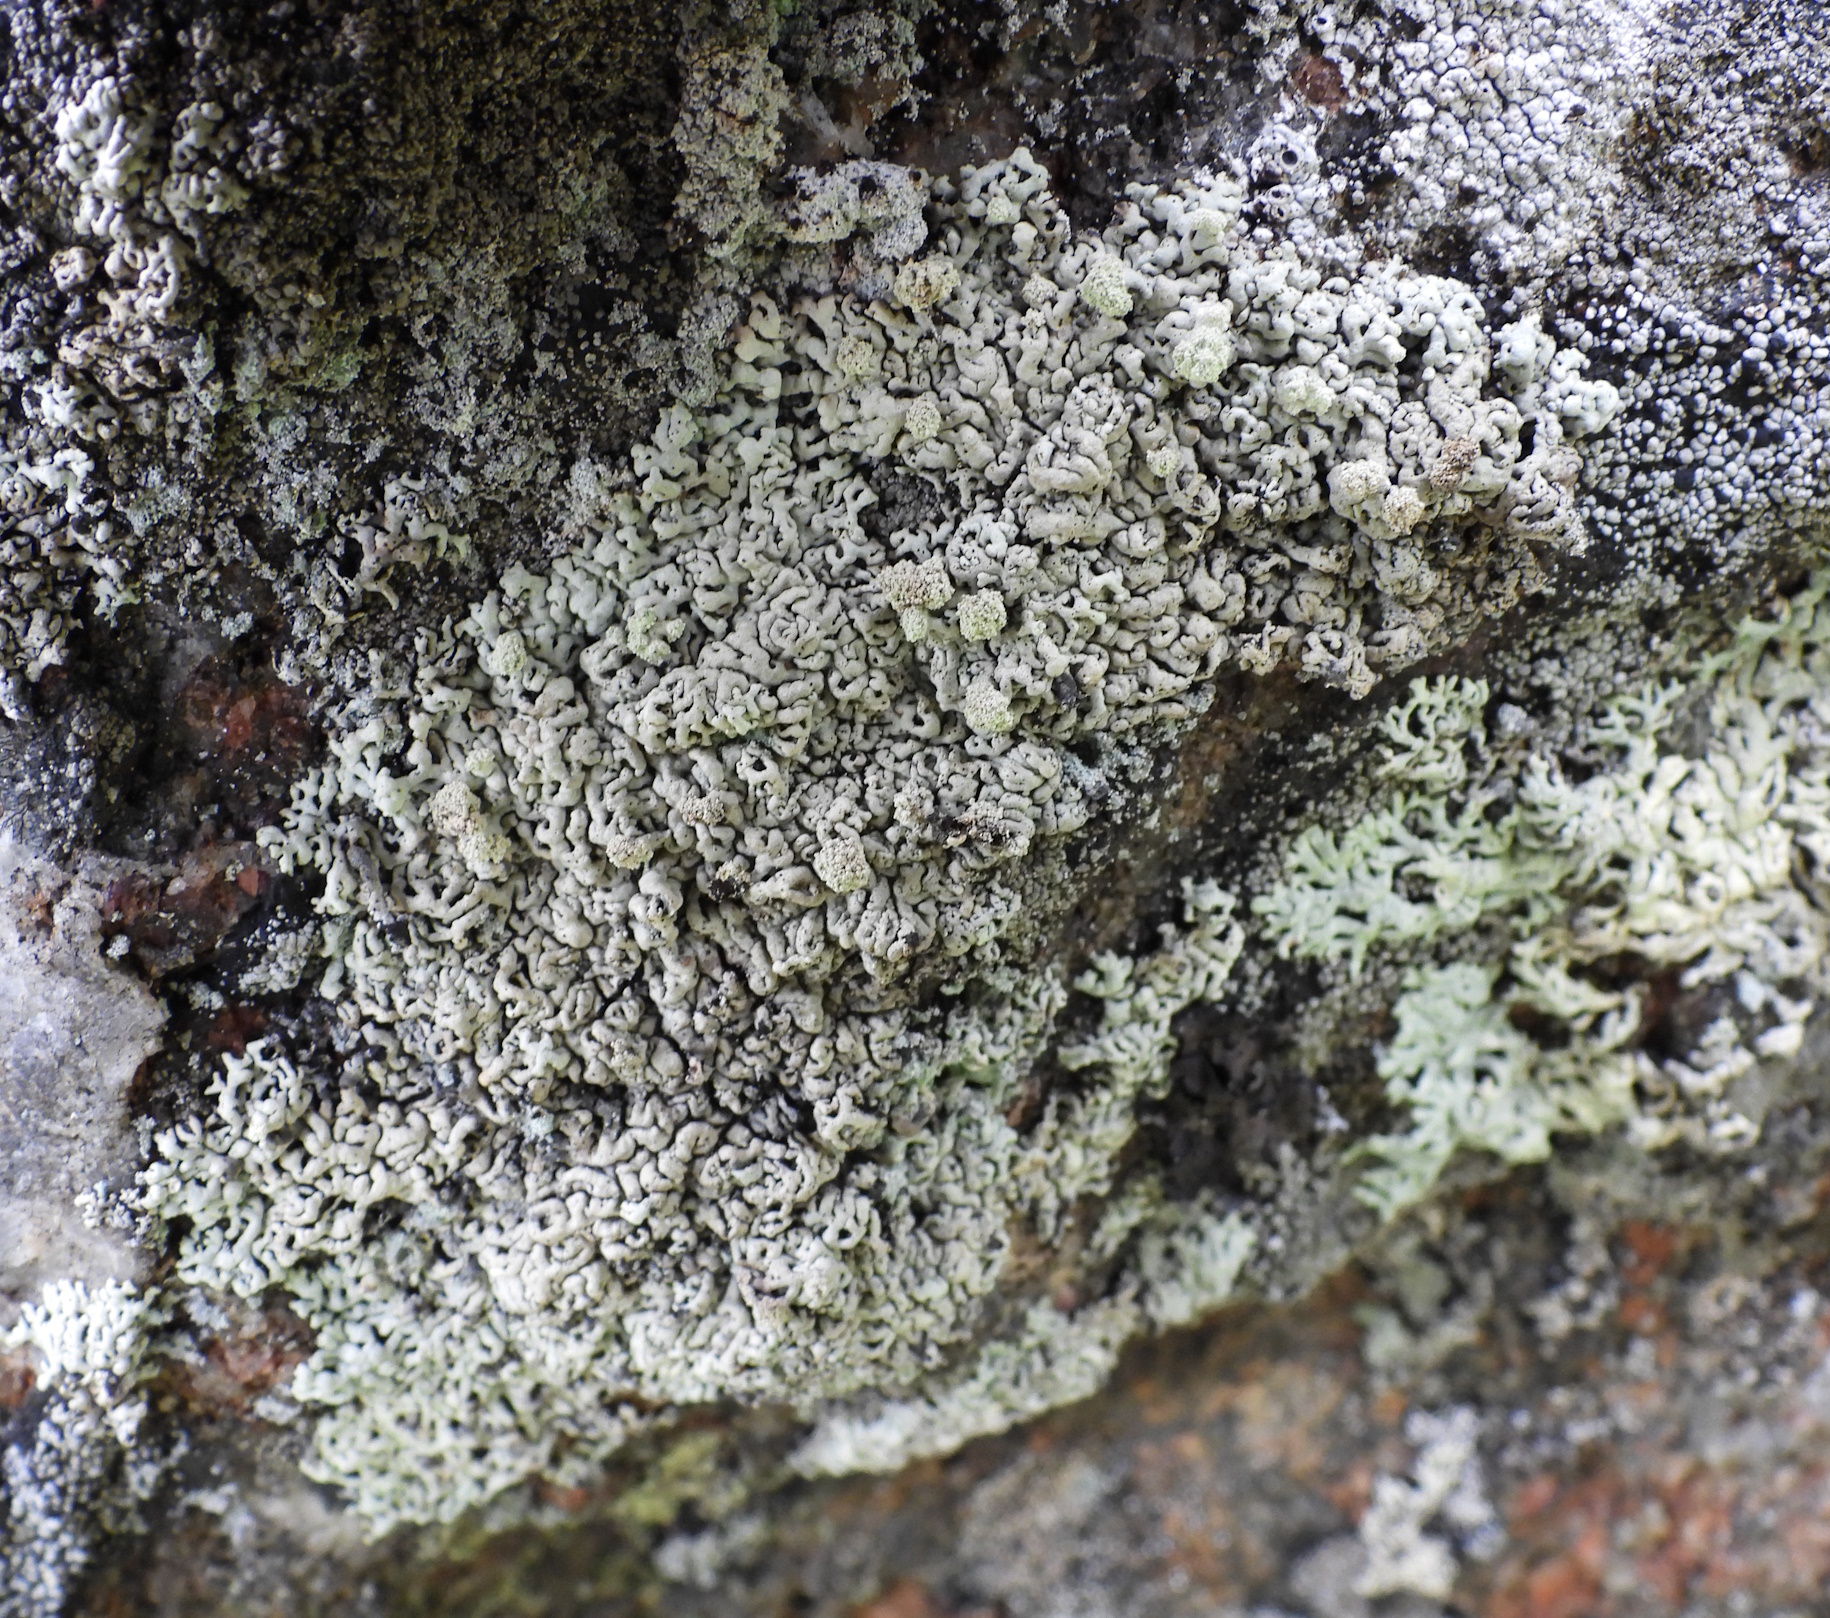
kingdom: Fungi
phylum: Ascomycota
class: Lecanoromycetes
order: Lecanorales
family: Parmeliaceae
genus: Arctoparmelia
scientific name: Arctoparmelia incurva
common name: Bent ring lichen
